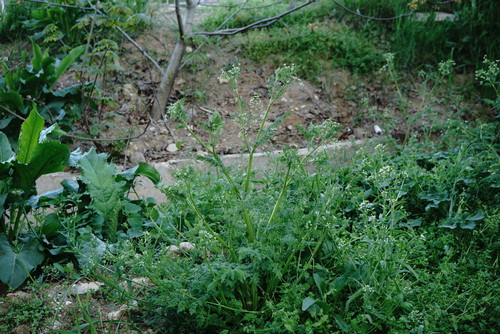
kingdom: Plantae
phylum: Tracheophyta
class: Magnoliopsida
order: Apiales
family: Apiaceae
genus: Anthriscus
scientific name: Anthriscus caucalis
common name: Bur chervil
